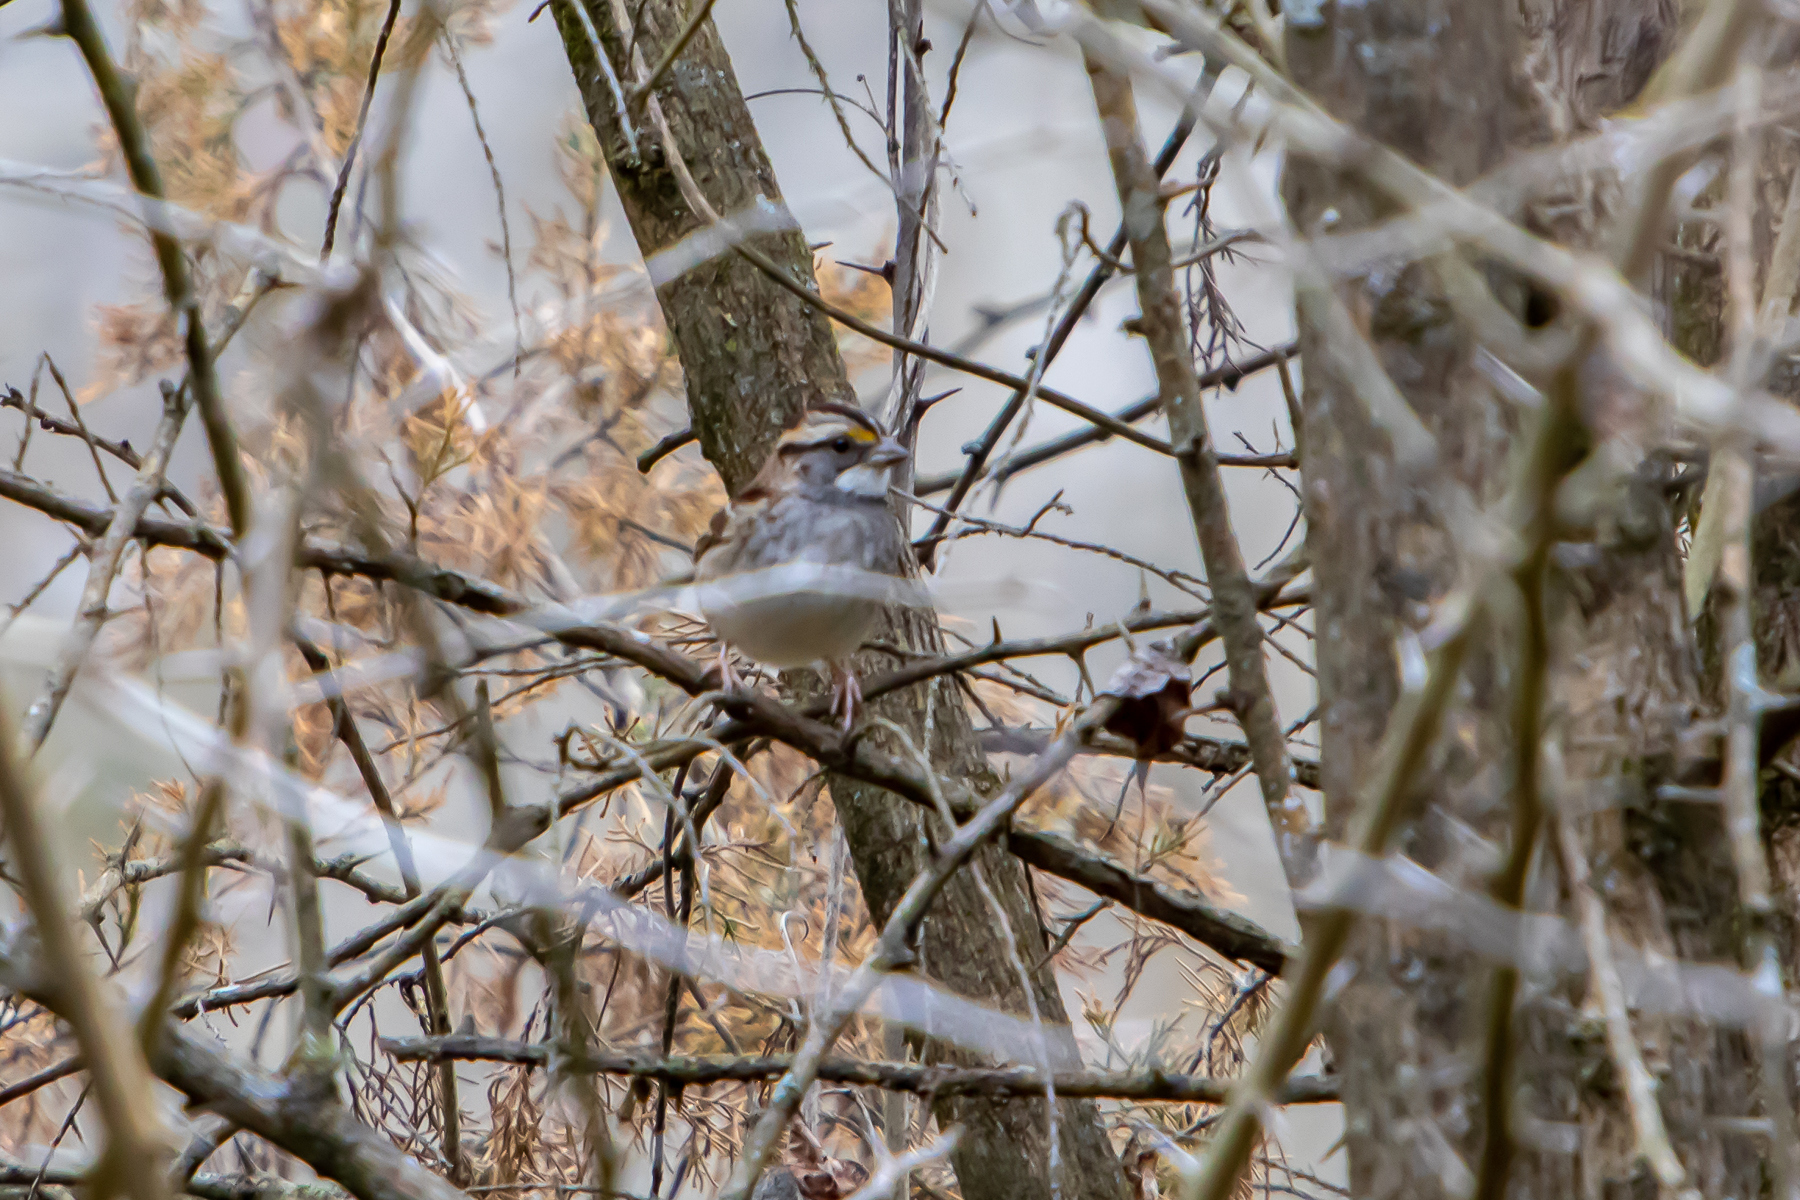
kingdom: Animalia
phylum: Chordata
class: Aves
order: Passeriformes
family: Passerellidae
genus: Zonotrichia
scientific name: Zonotrichia albicollis
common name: White-throated sparrow
